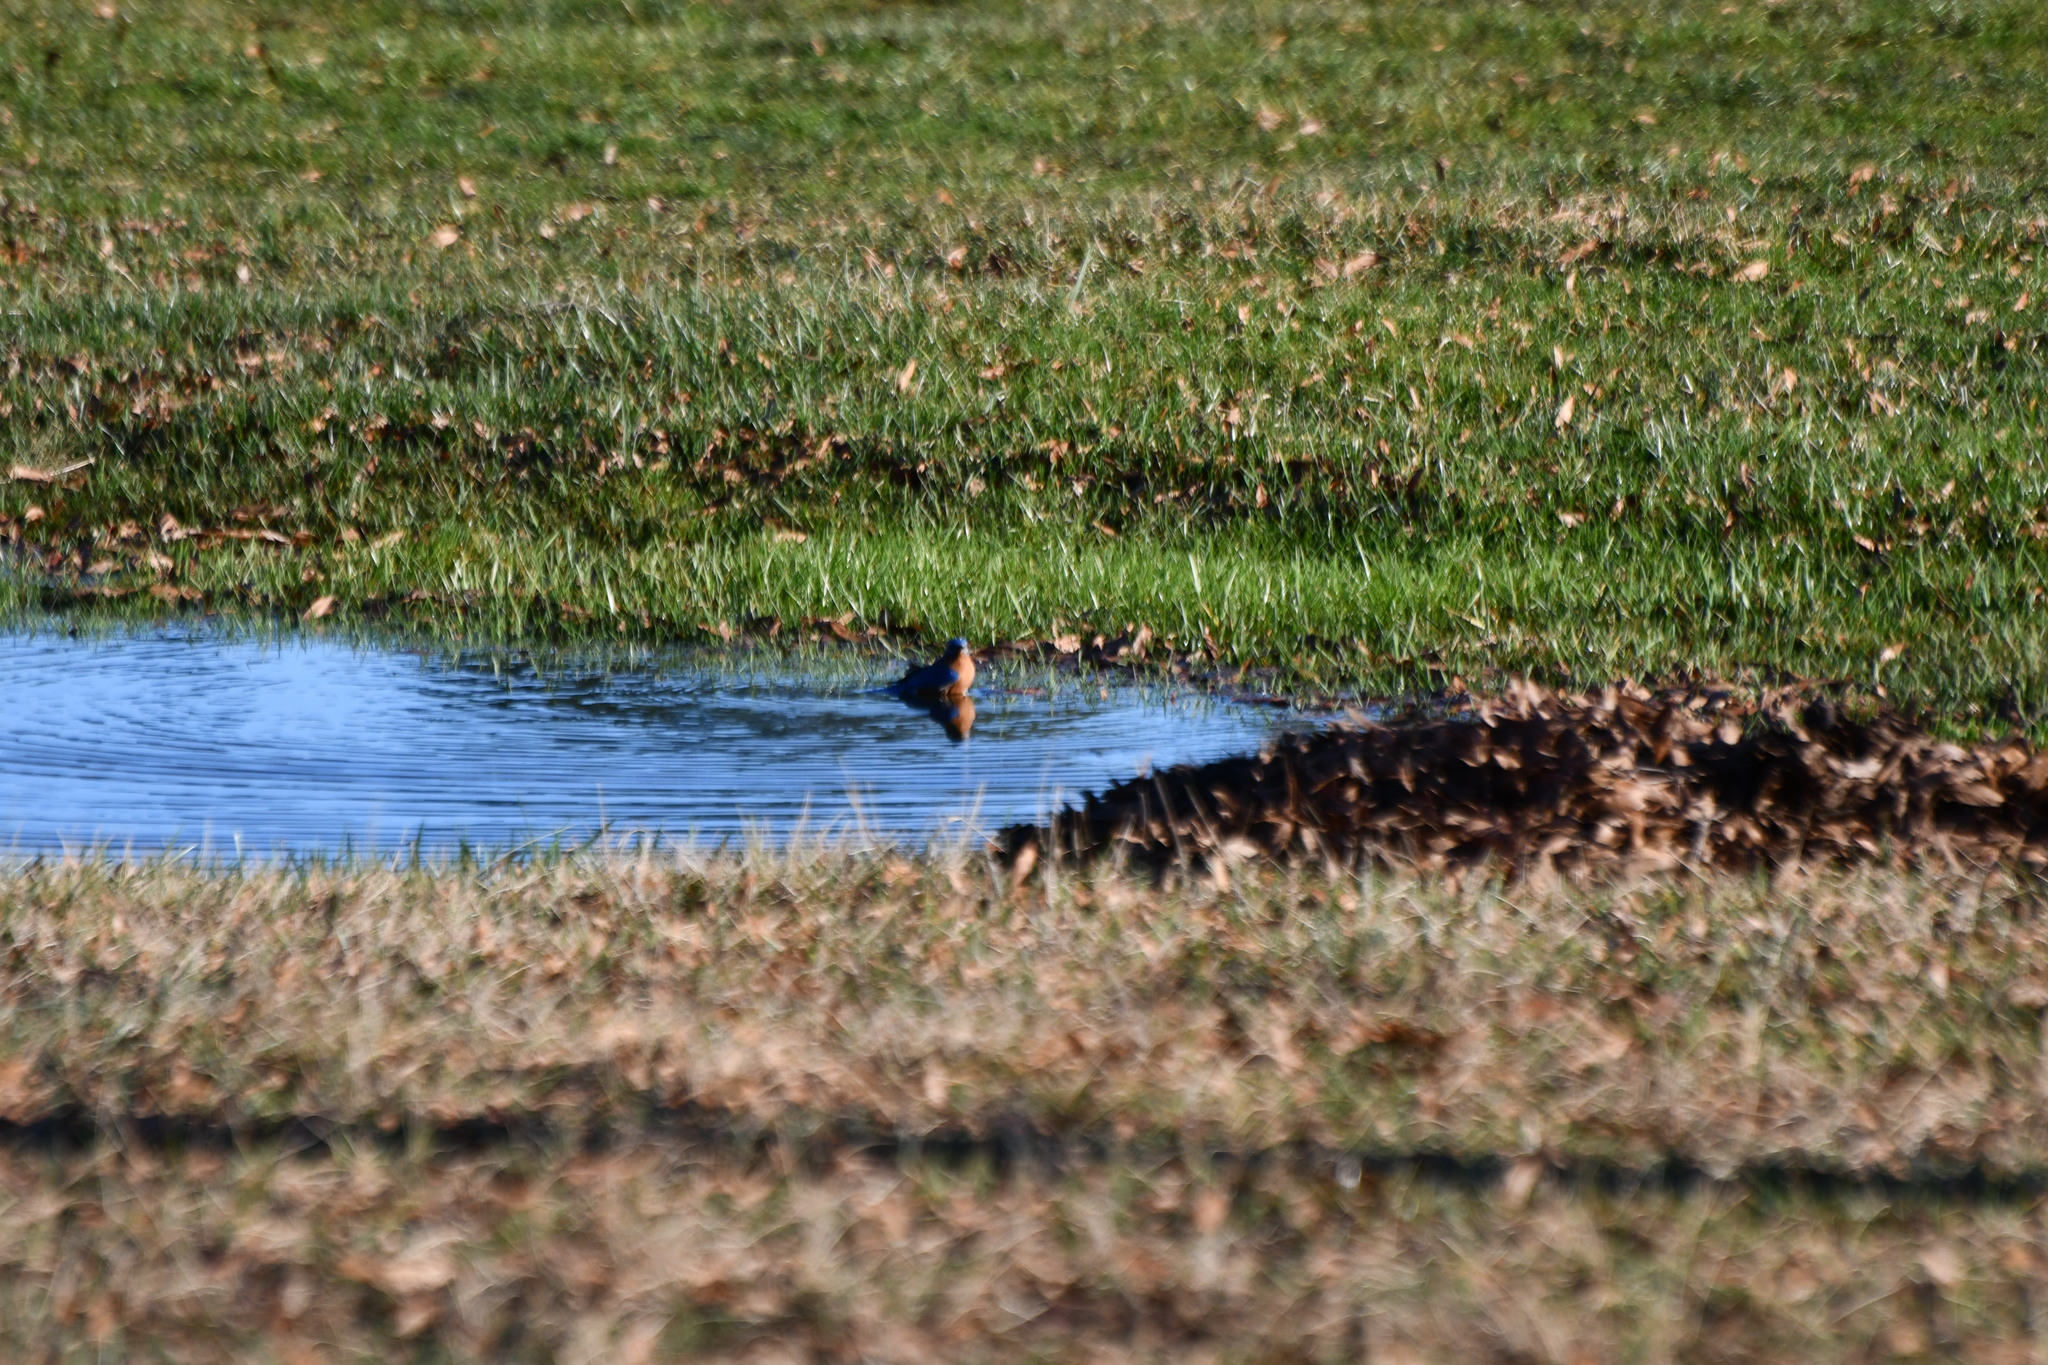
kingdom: Animalia
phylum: Chordata
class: Aves
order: Passeriformes
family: Turdidae
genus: Sialia
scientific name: Sialia sialis
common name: Eastern bluebird
